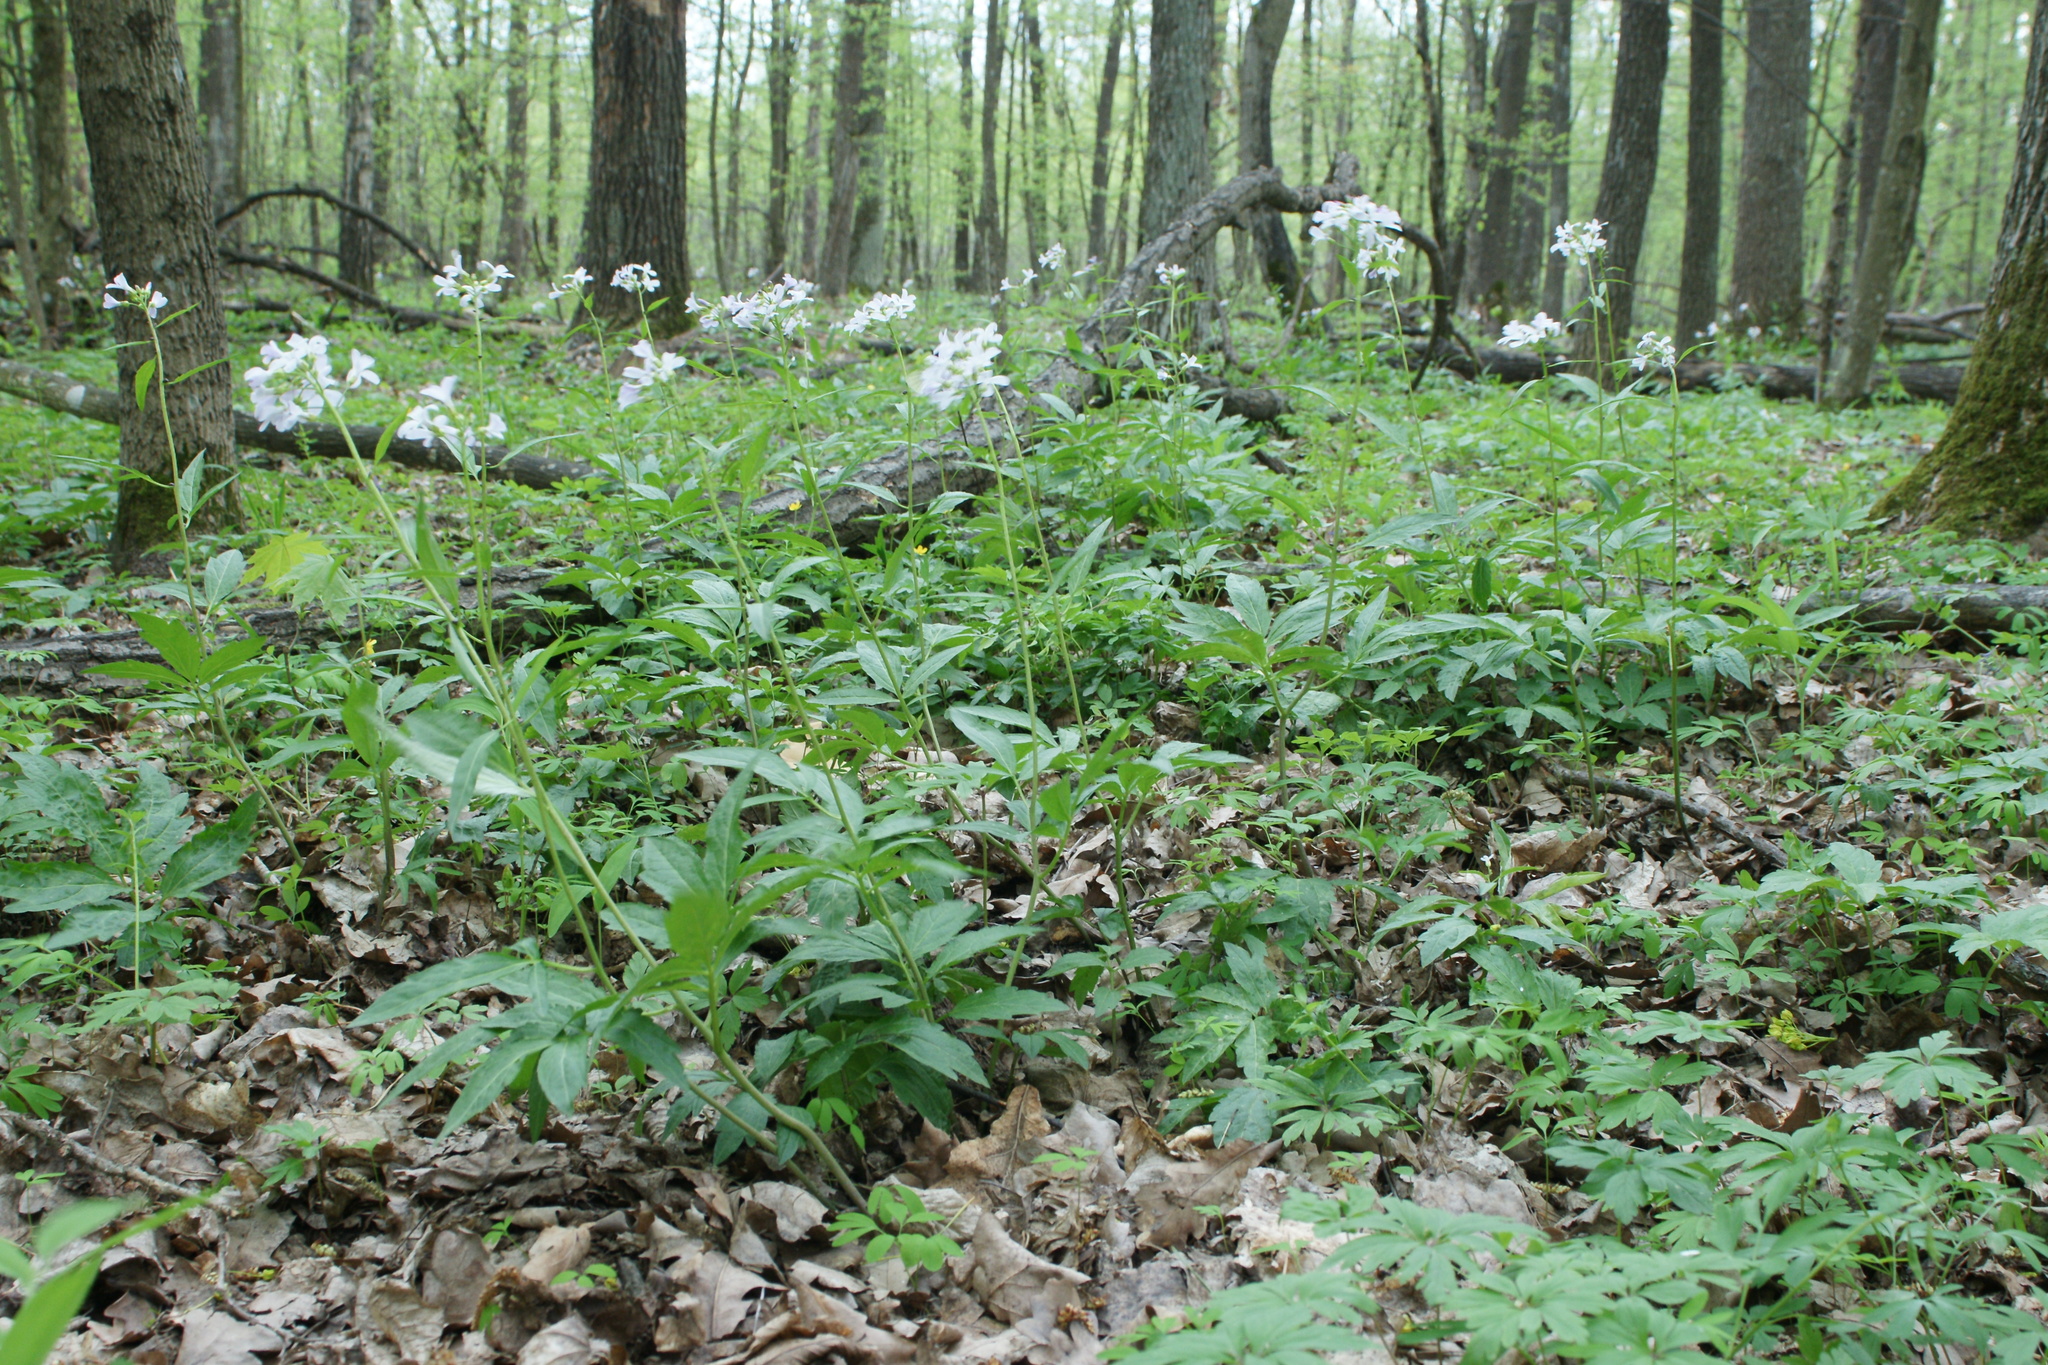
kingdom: Plantae
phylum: Tracheophyta
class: Magnoliopsida
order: Brassicales
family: Brassicaceae
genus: Cardamine
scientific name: Cardamine bulbifera
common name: Coralroot bittercress
